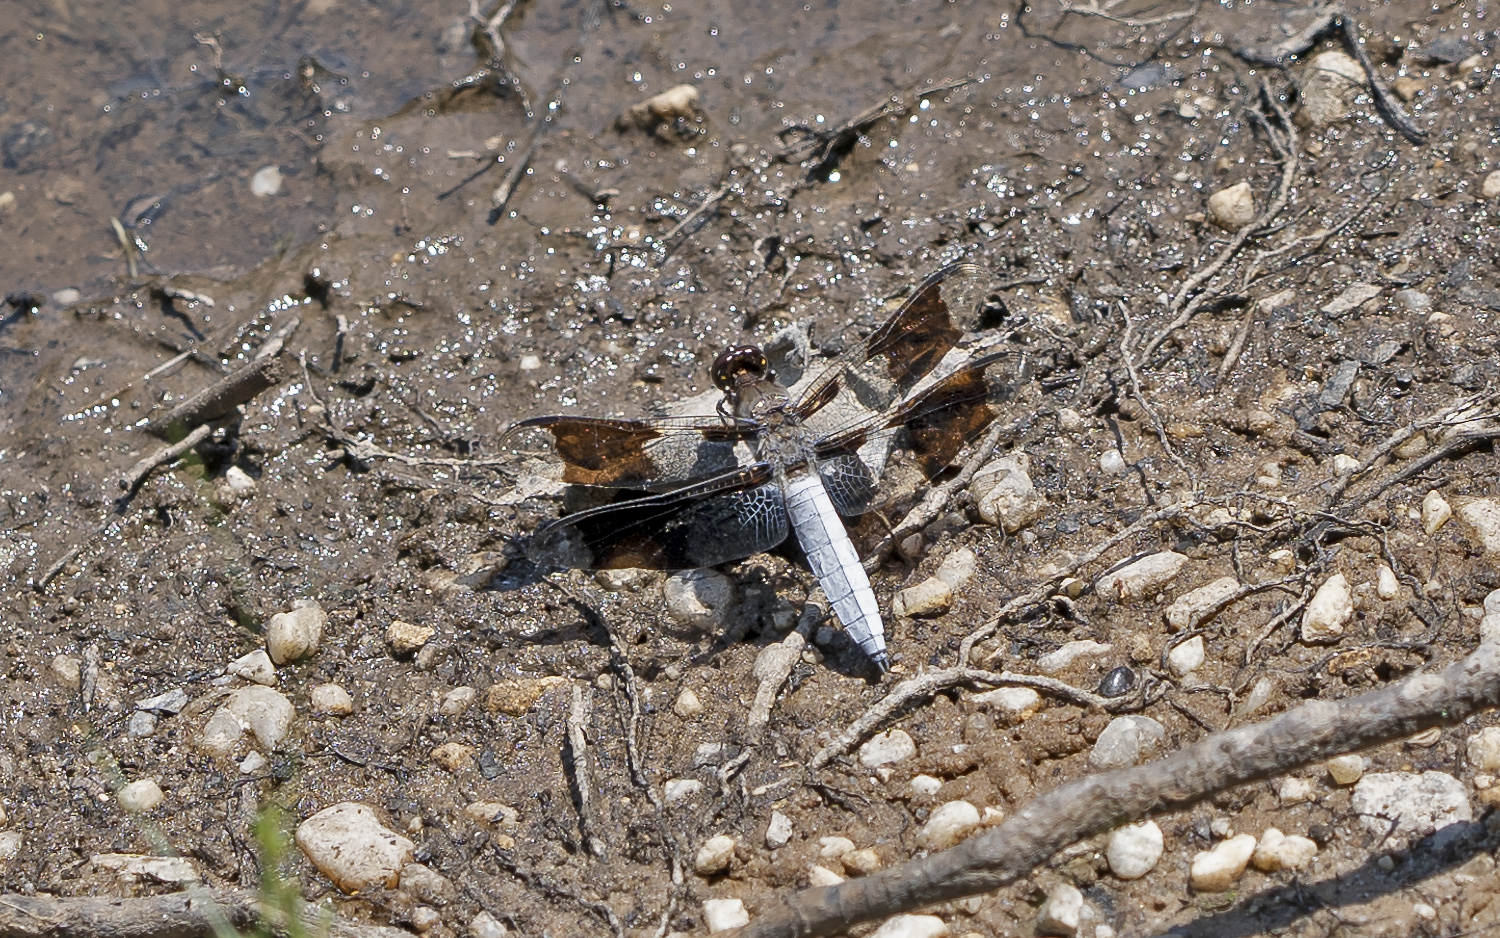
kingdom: Animalia
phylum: Arthropoda
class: Insecta
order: Odonata
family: Libellulidae
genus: Plathemis
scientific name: Plathemis lydia
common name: Common whitetail
